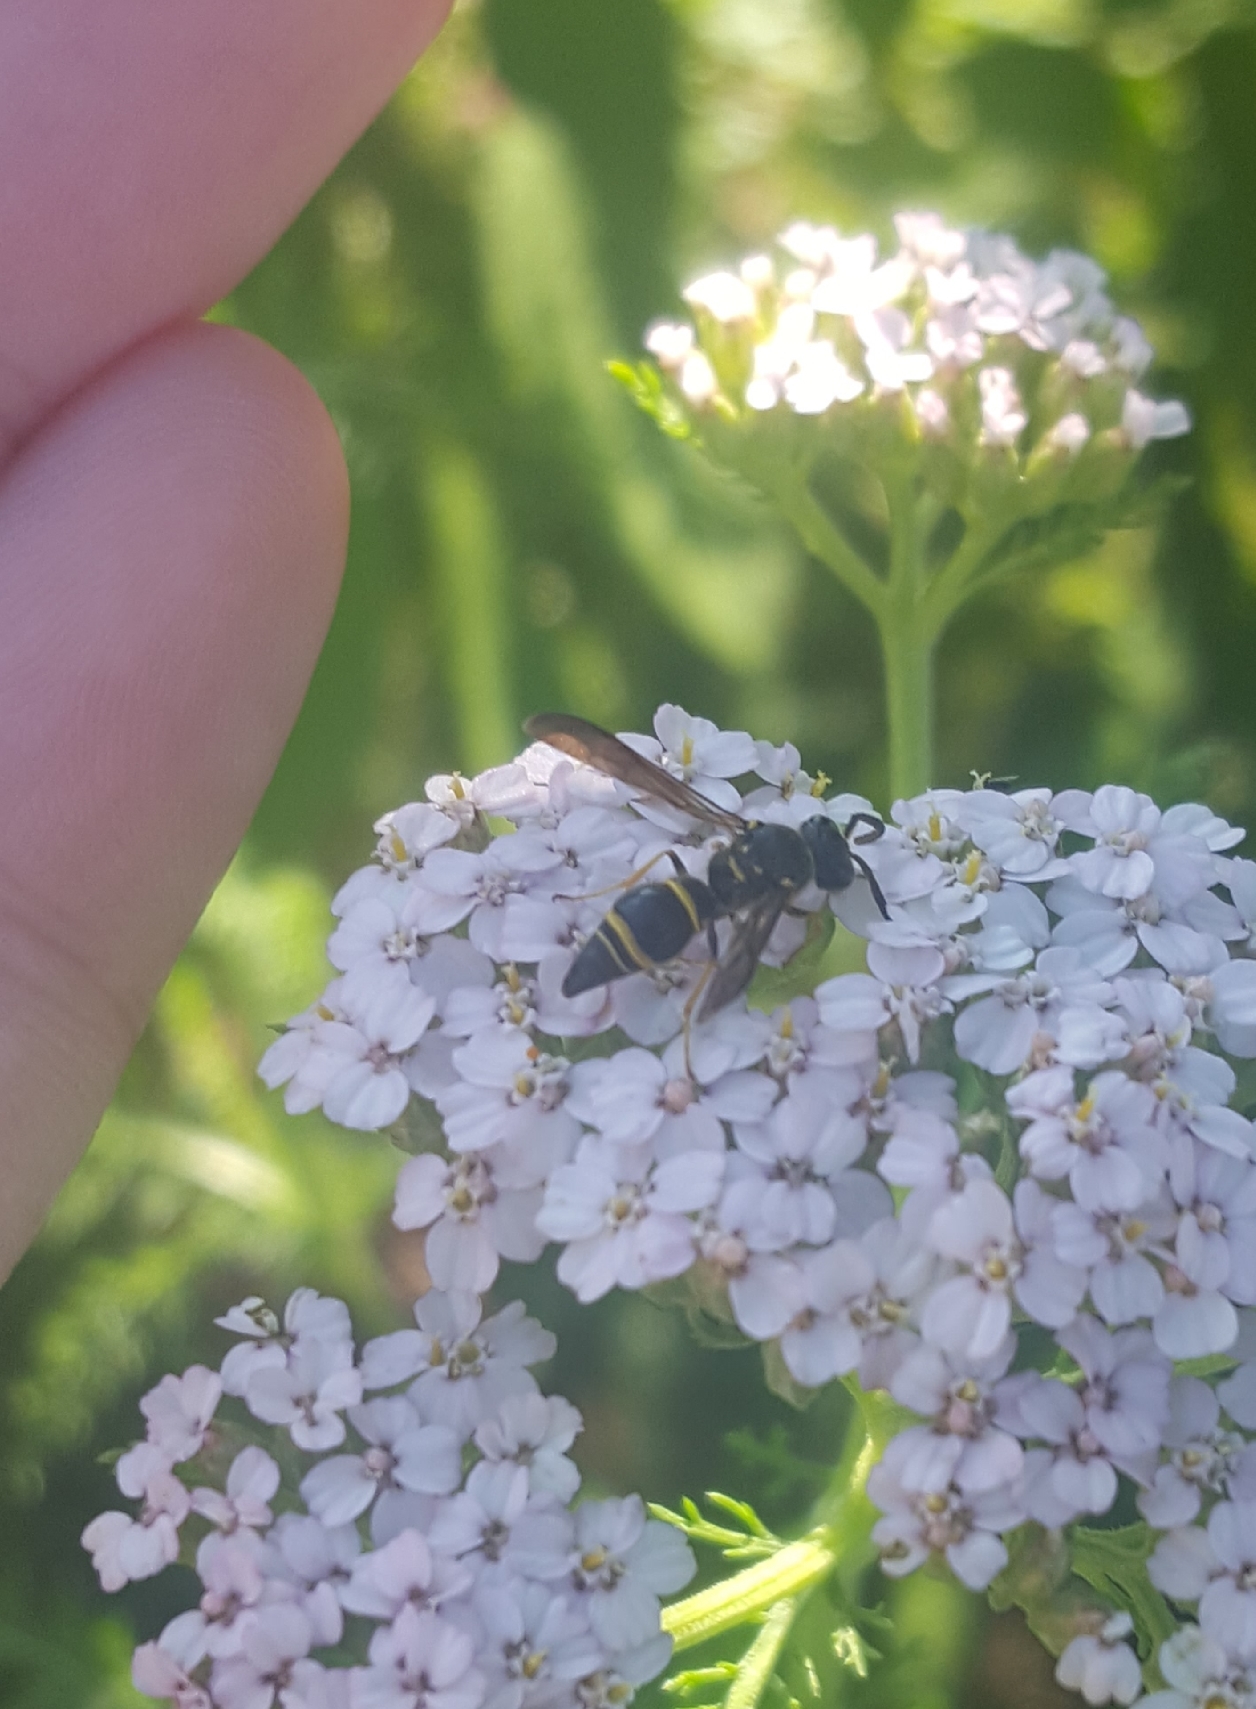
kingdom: Animalia
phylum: Arthropoda
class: Insecta
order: Hymenoptera
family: Vespidae
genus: Ancistrocerus
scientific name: Ancistrocerus campestris
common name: Smiling mason wasp
